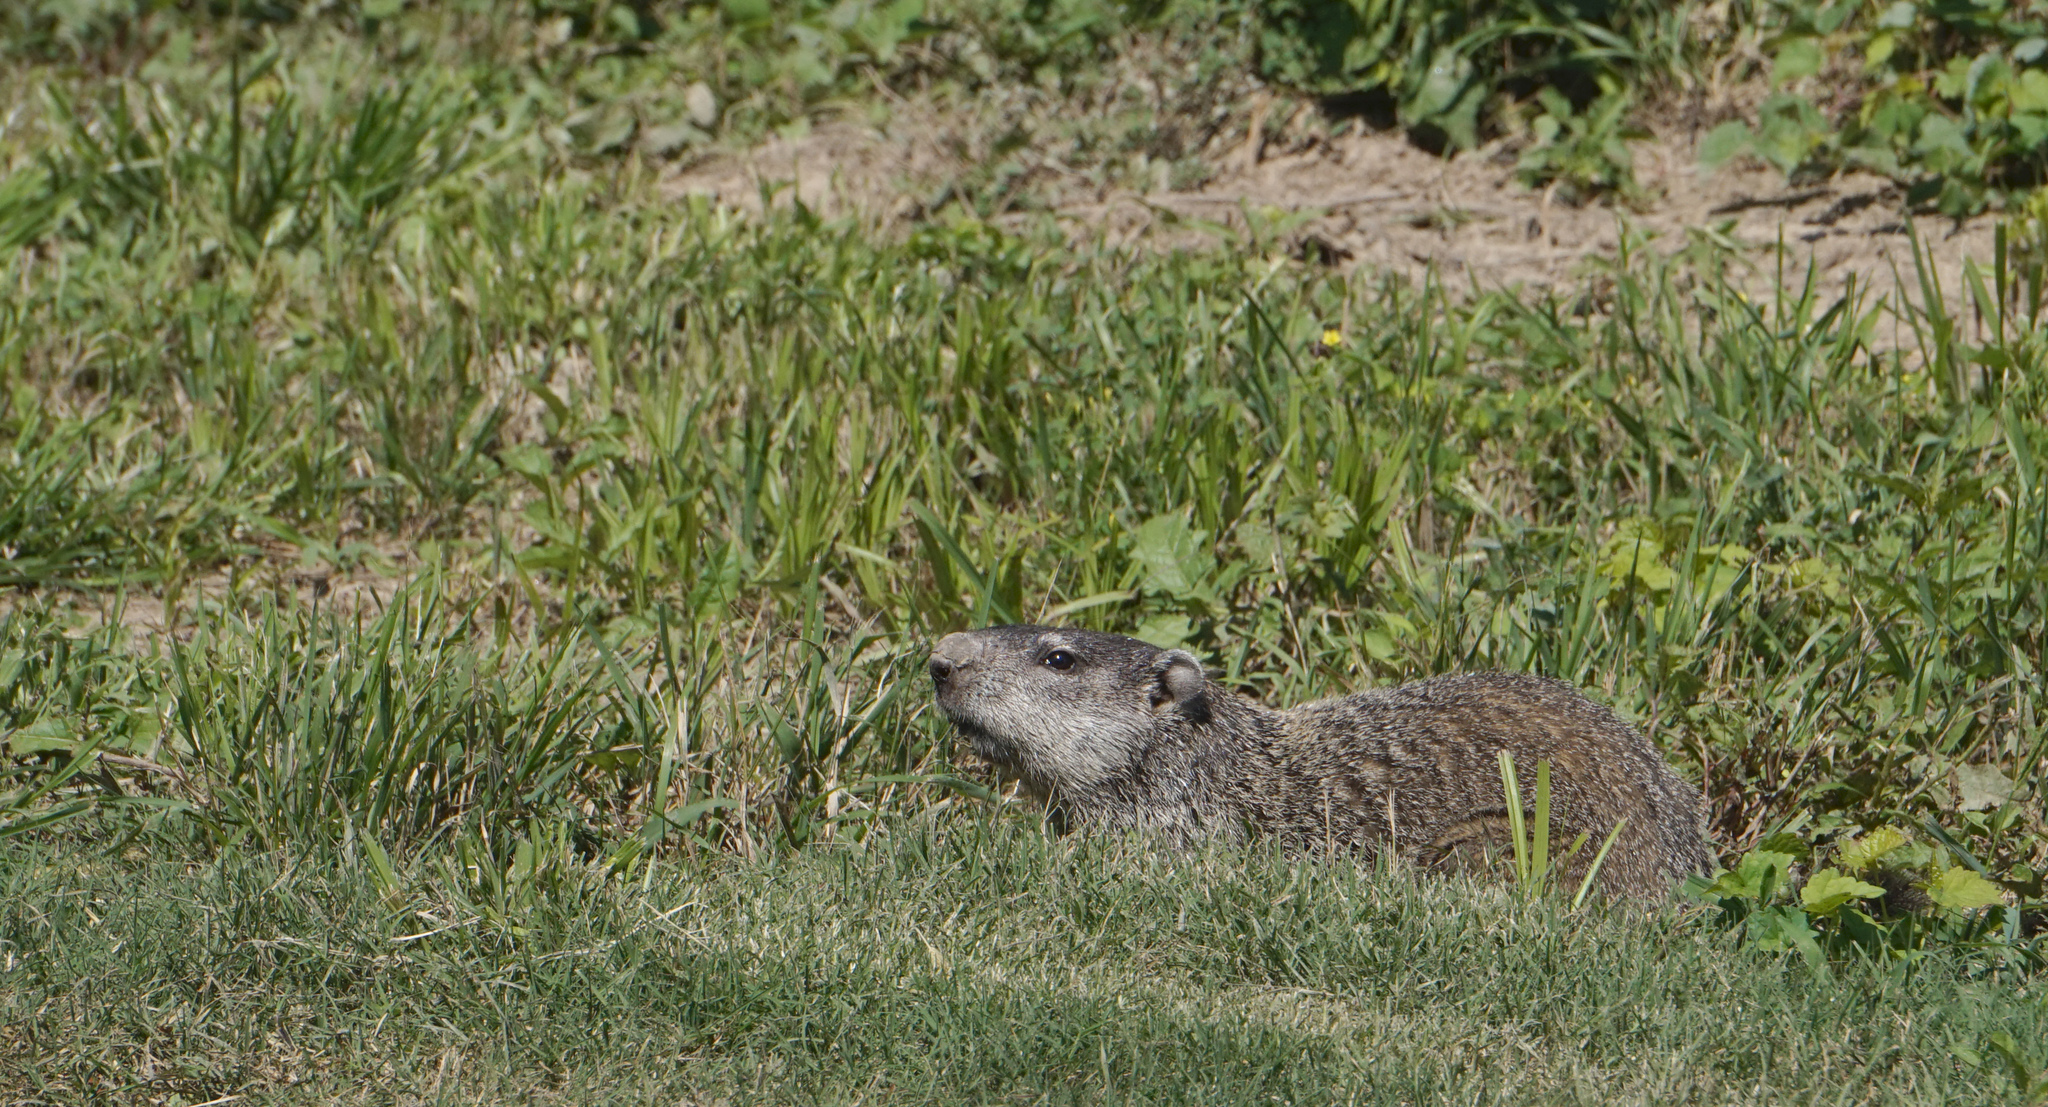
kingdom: Animalia
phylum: Chordata
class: Mammalia
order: Rodentia
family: Sciuridae
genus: Marmota
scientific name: Marmota monax
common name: Groundhog
